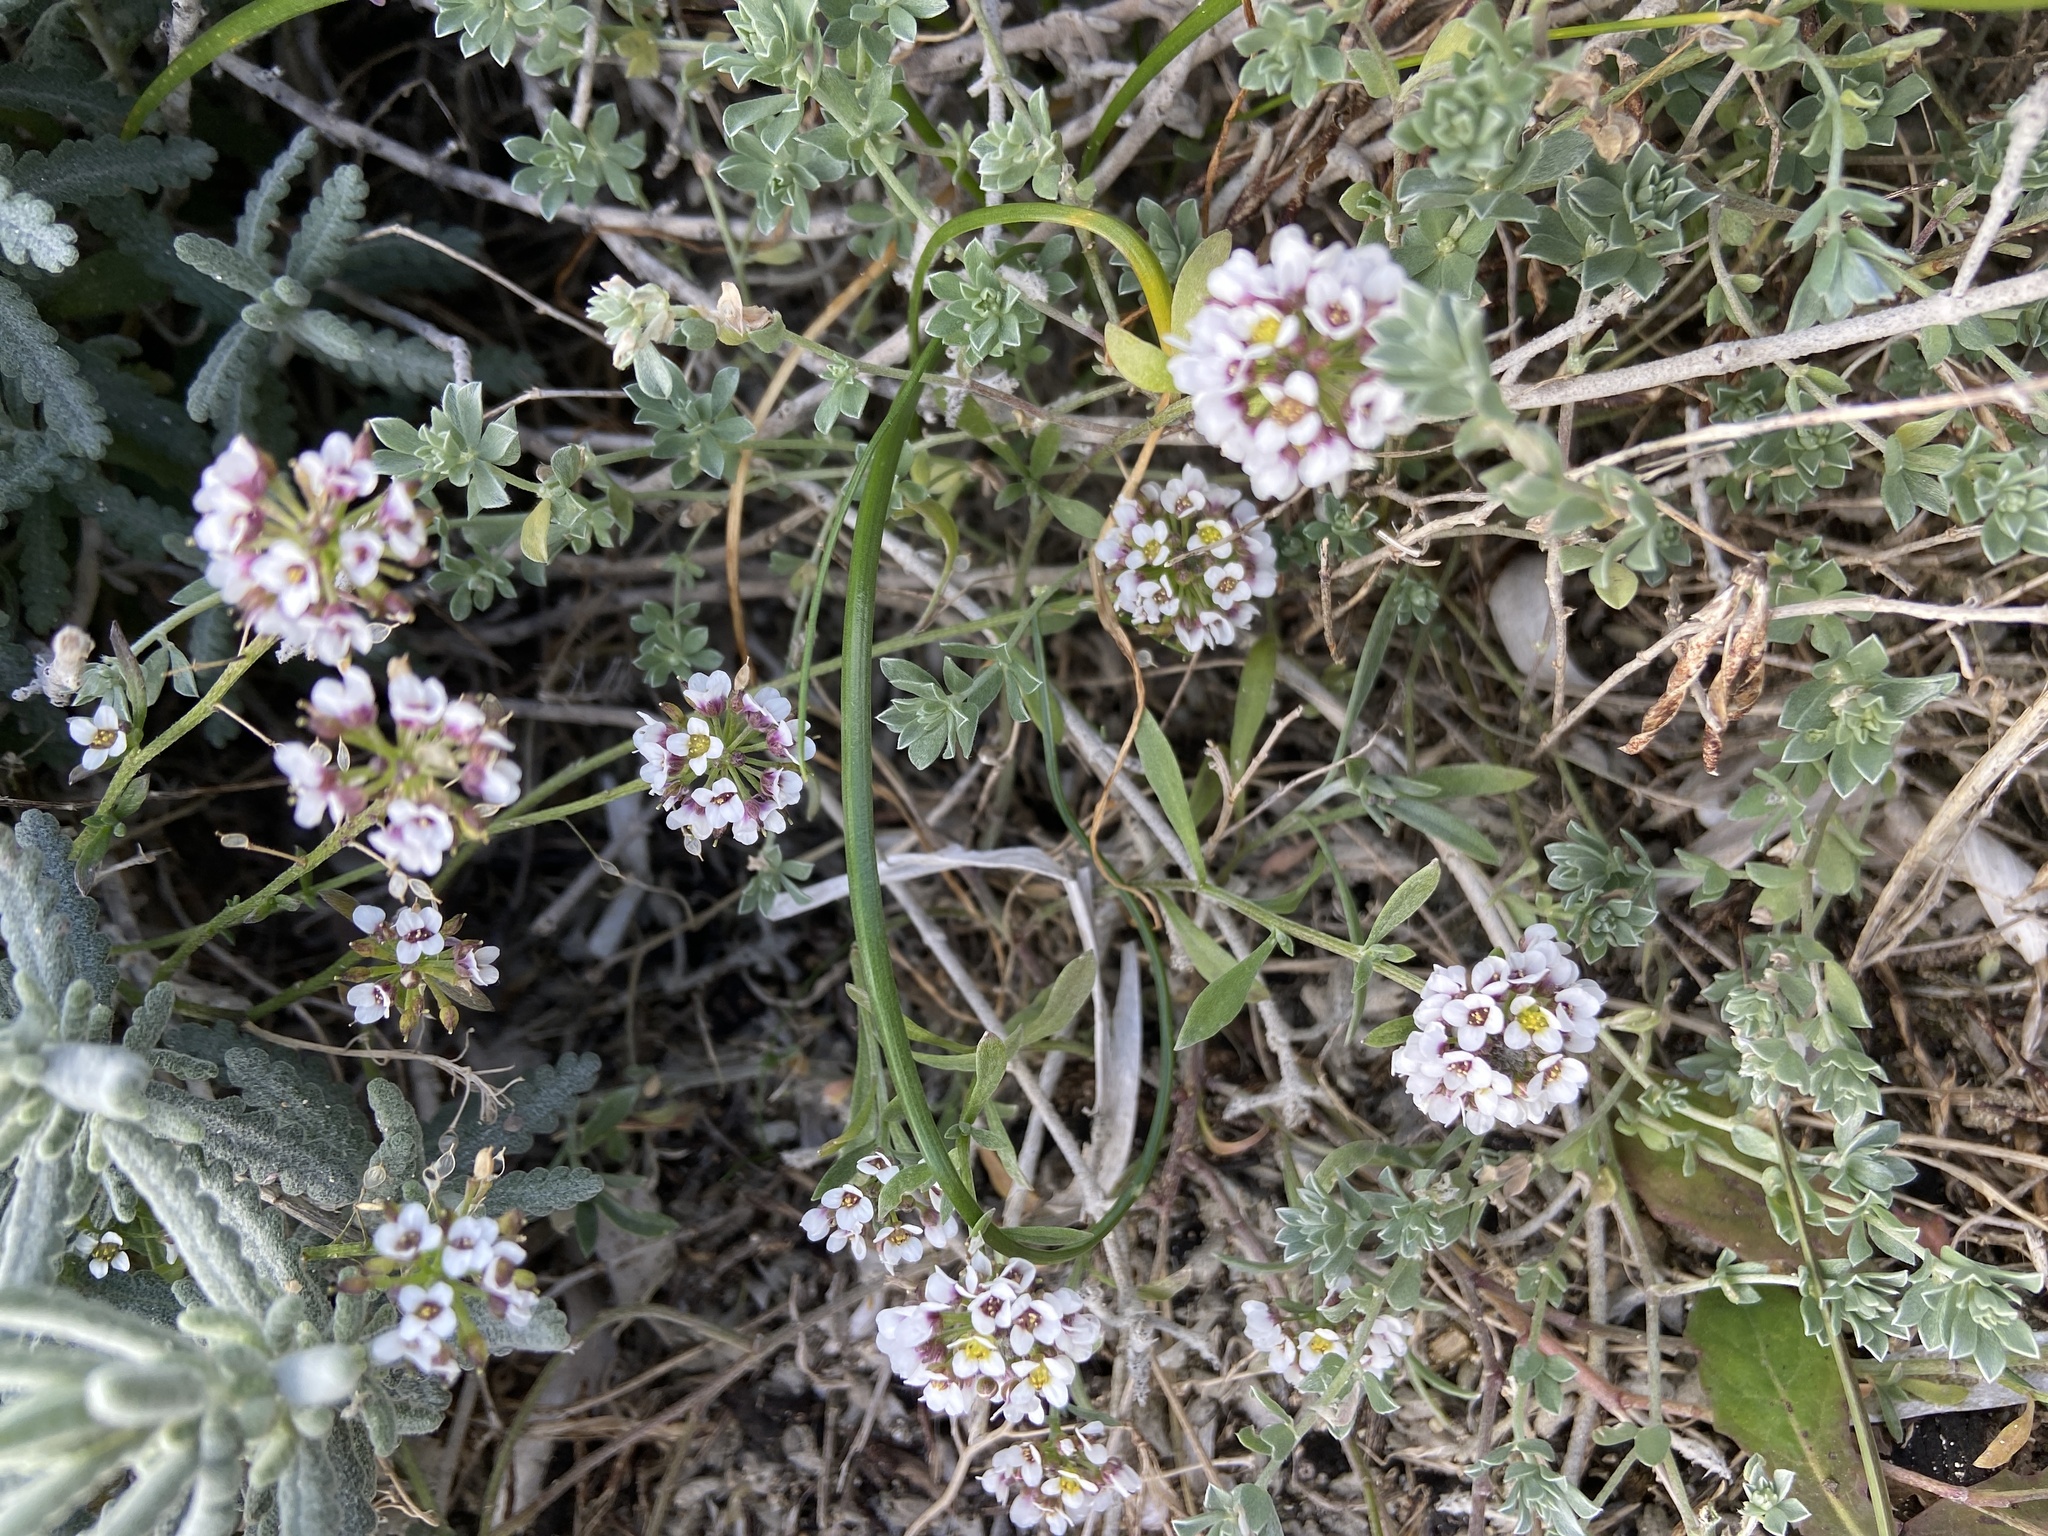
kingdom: Plantae
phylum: Tracheophyta
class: Magnoliopsida
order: Brassicales
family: Brassicaceae
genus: Lobularia
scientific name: Lobularia maritima
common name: Sweet alison
